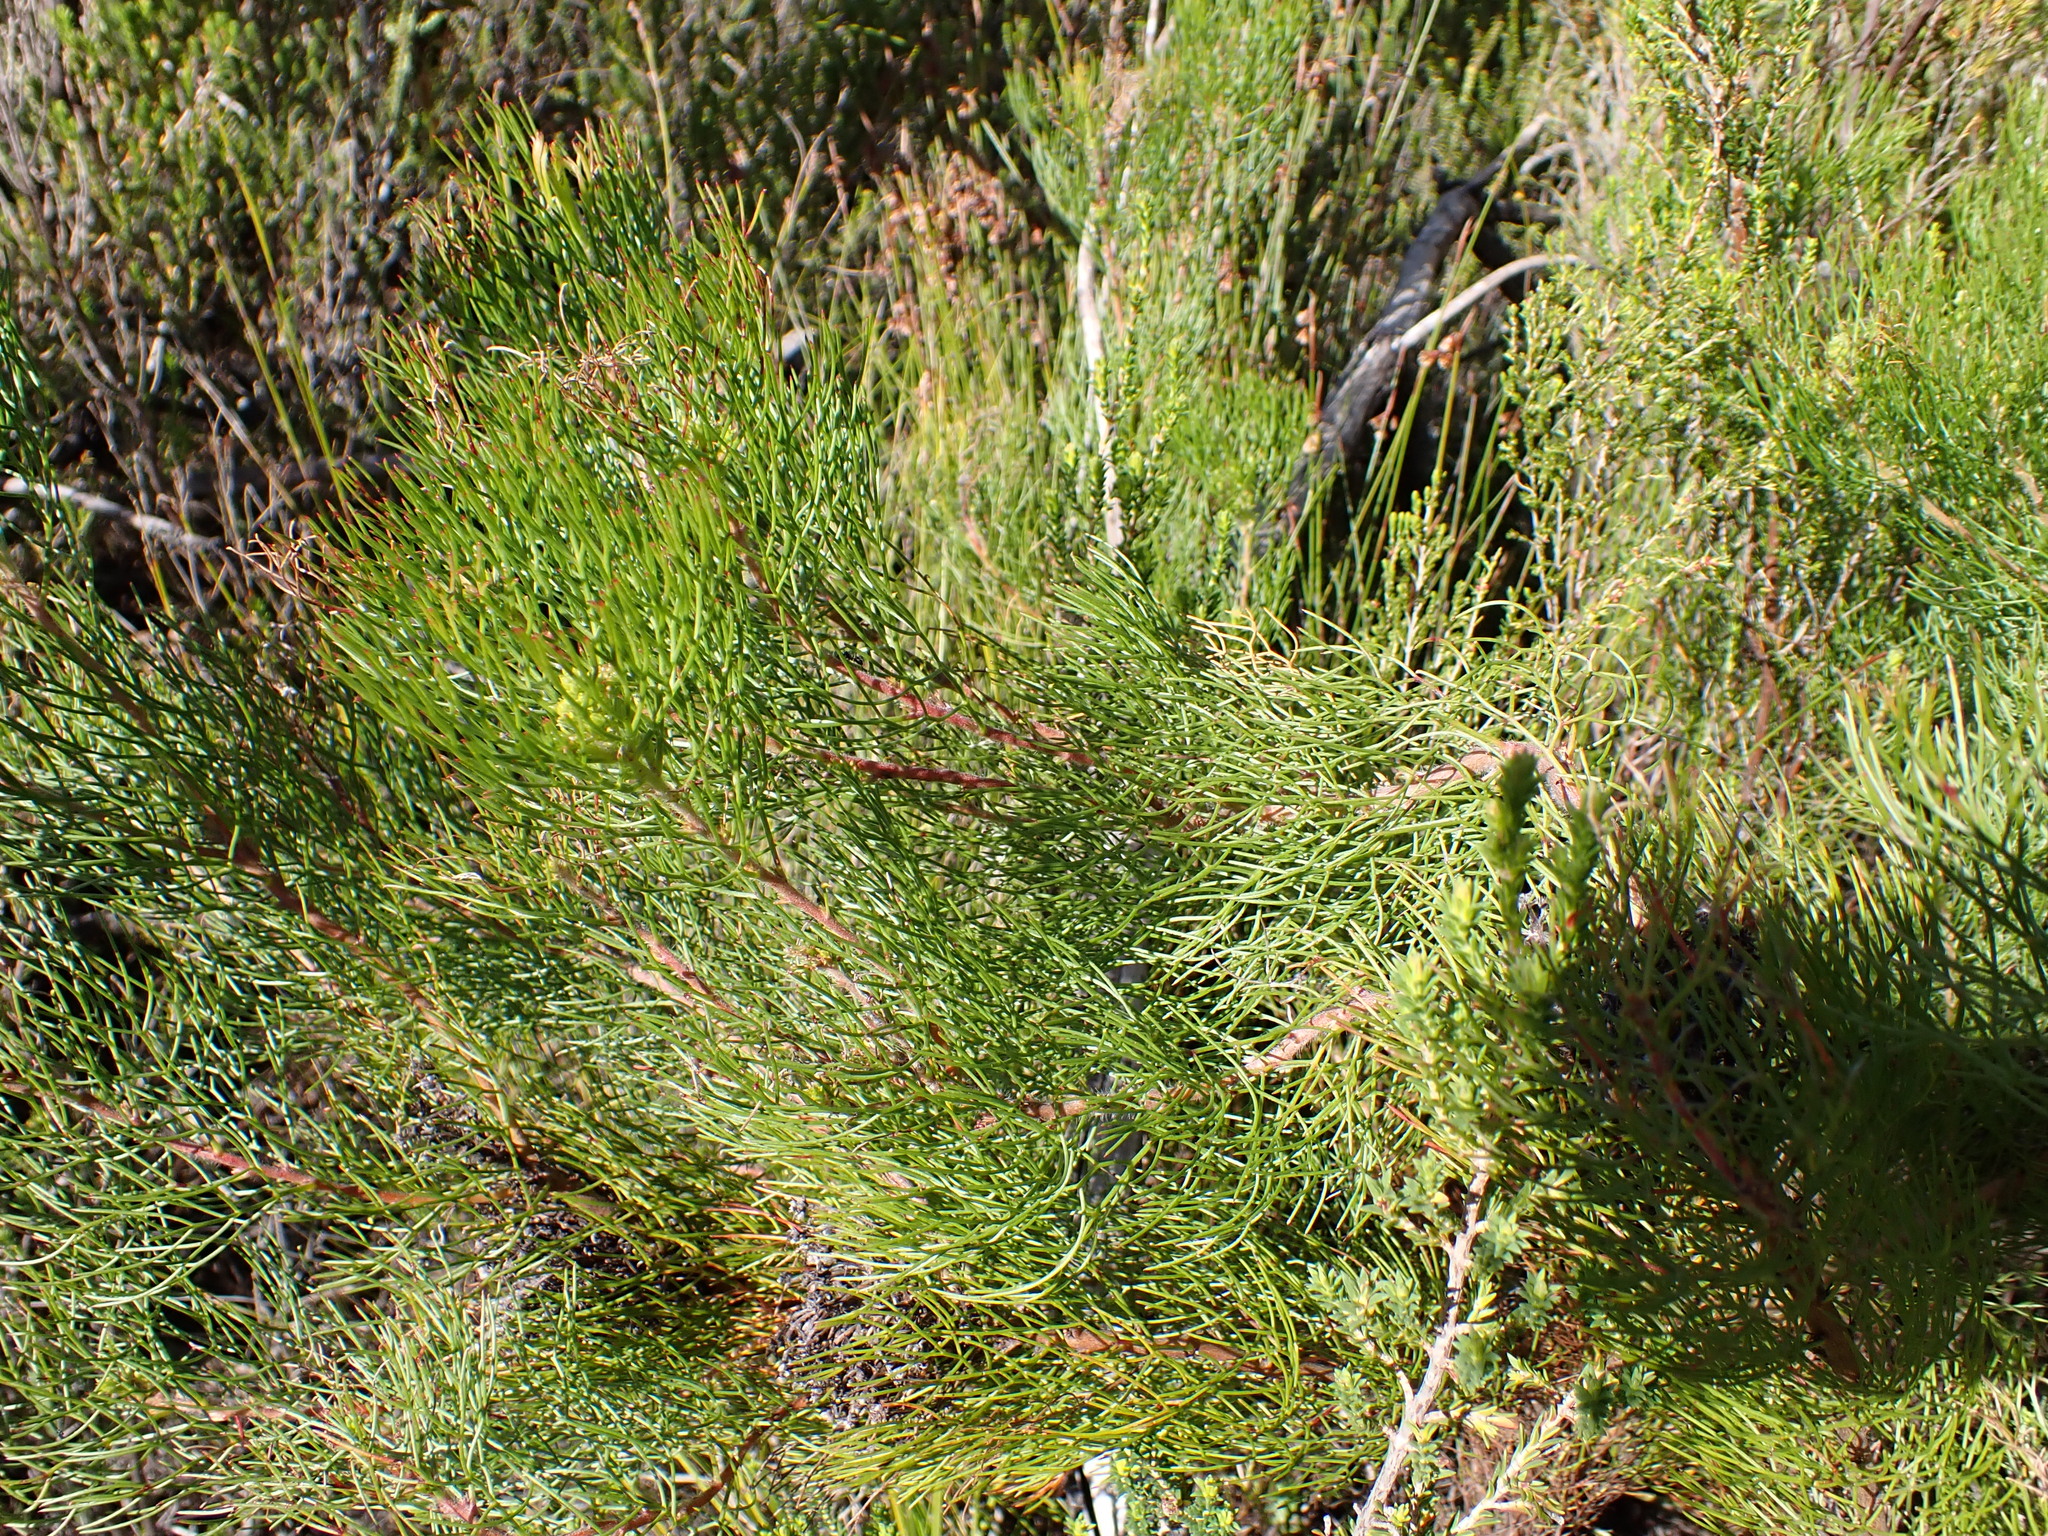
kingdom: Plantae
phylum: Tracheophyta
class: Magnoliopsida
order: Proteales
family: Proteaceae
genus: Serruria
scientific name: Serruria fasciflora
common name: Common pin spiderhead
